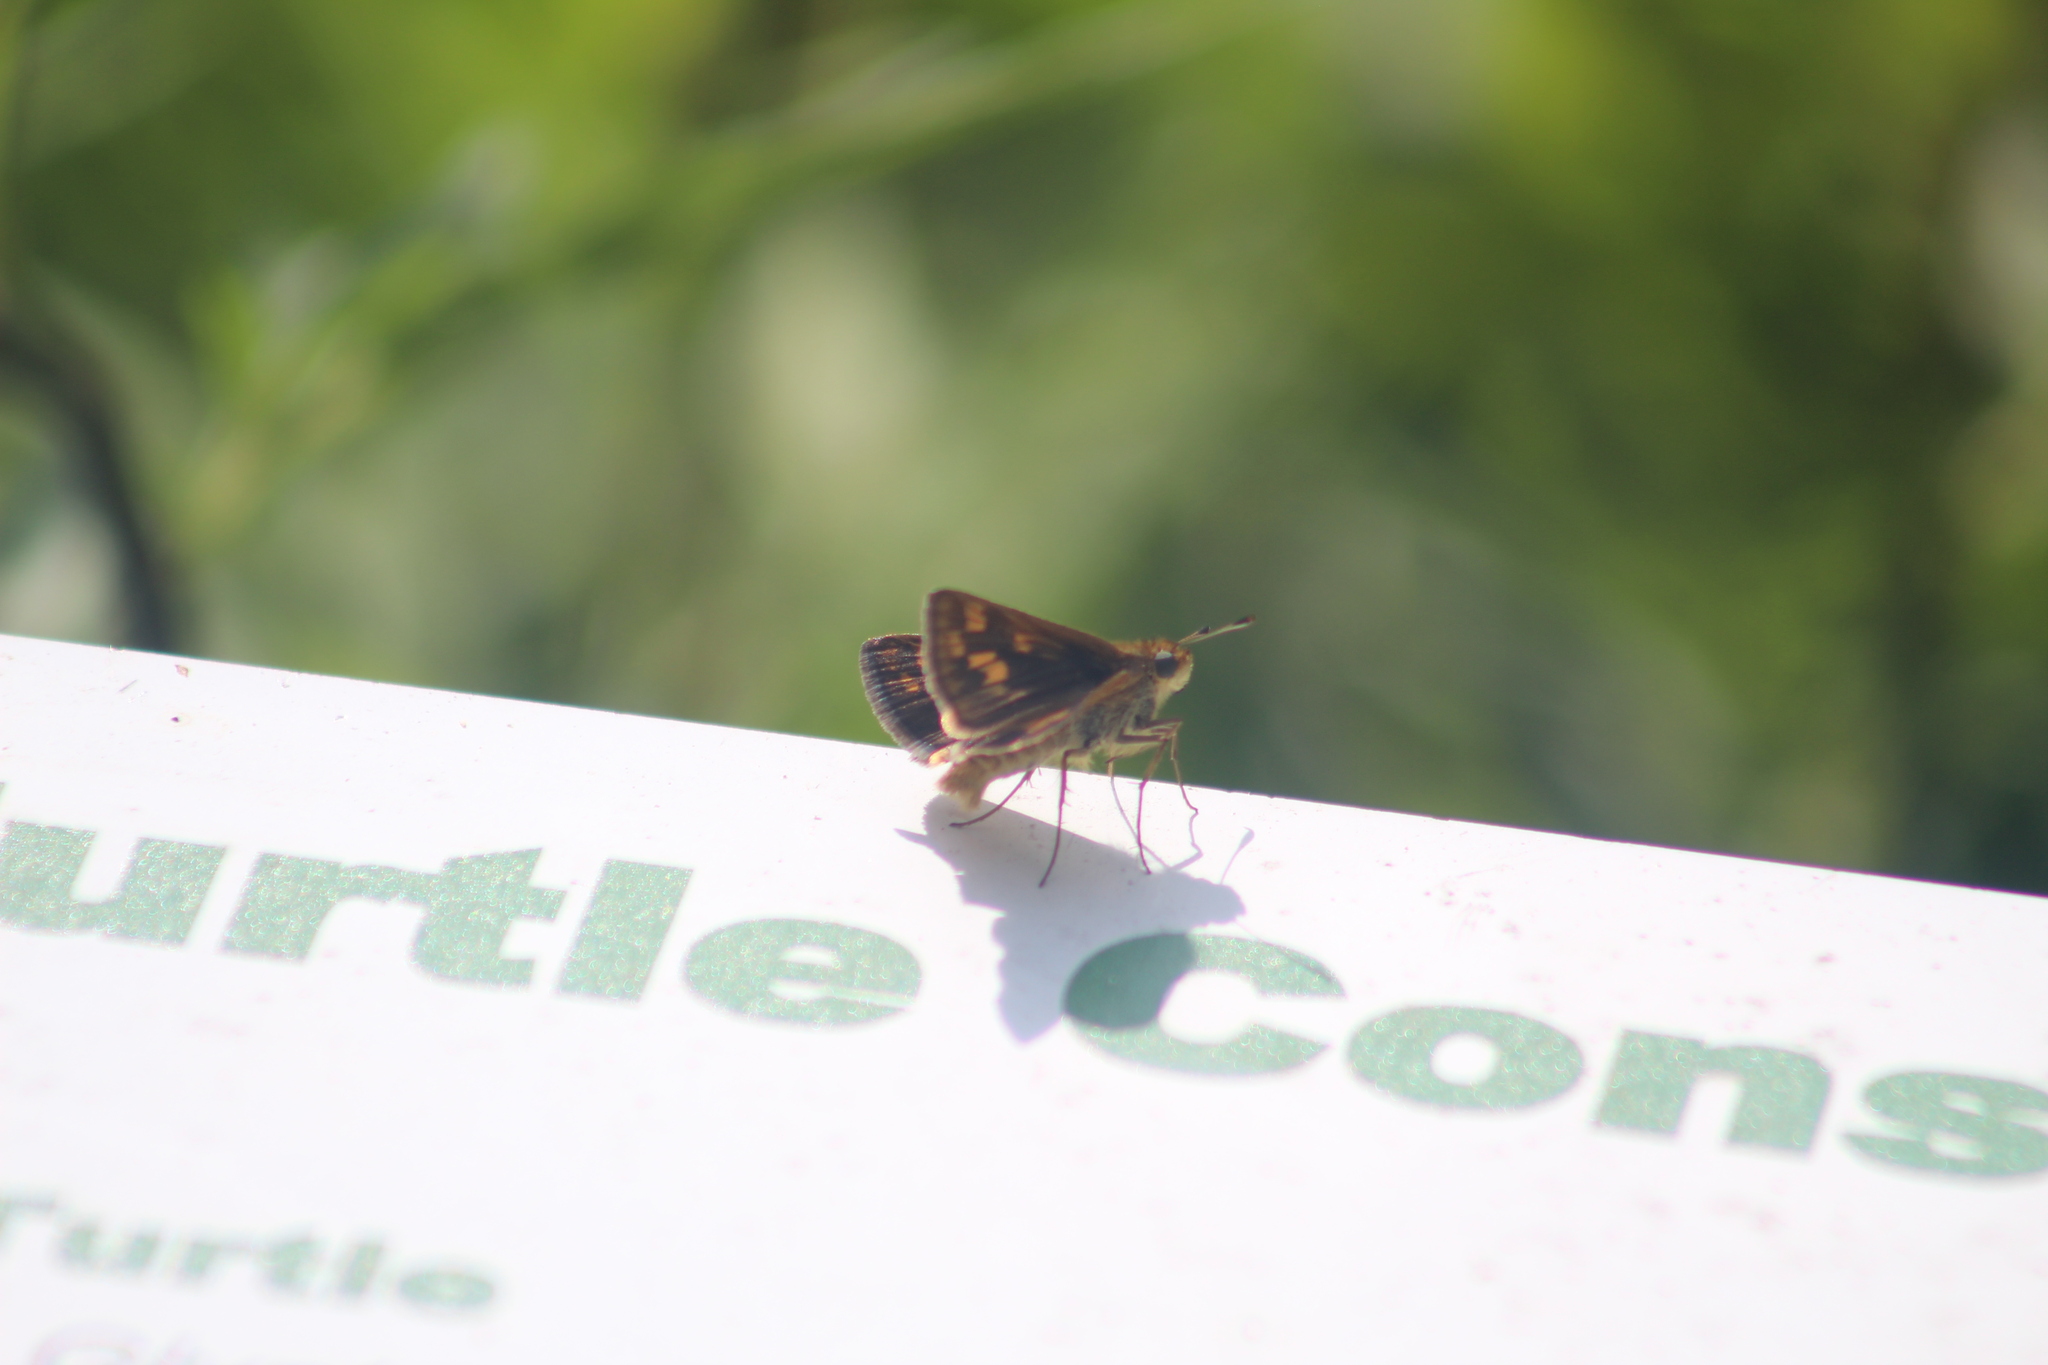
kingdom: Animalia
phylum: Arthropoda
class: Insecta
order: Lepidoptera
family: Hesperiidae
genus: Polites
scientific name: Polites coras
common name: Peck's skipper
